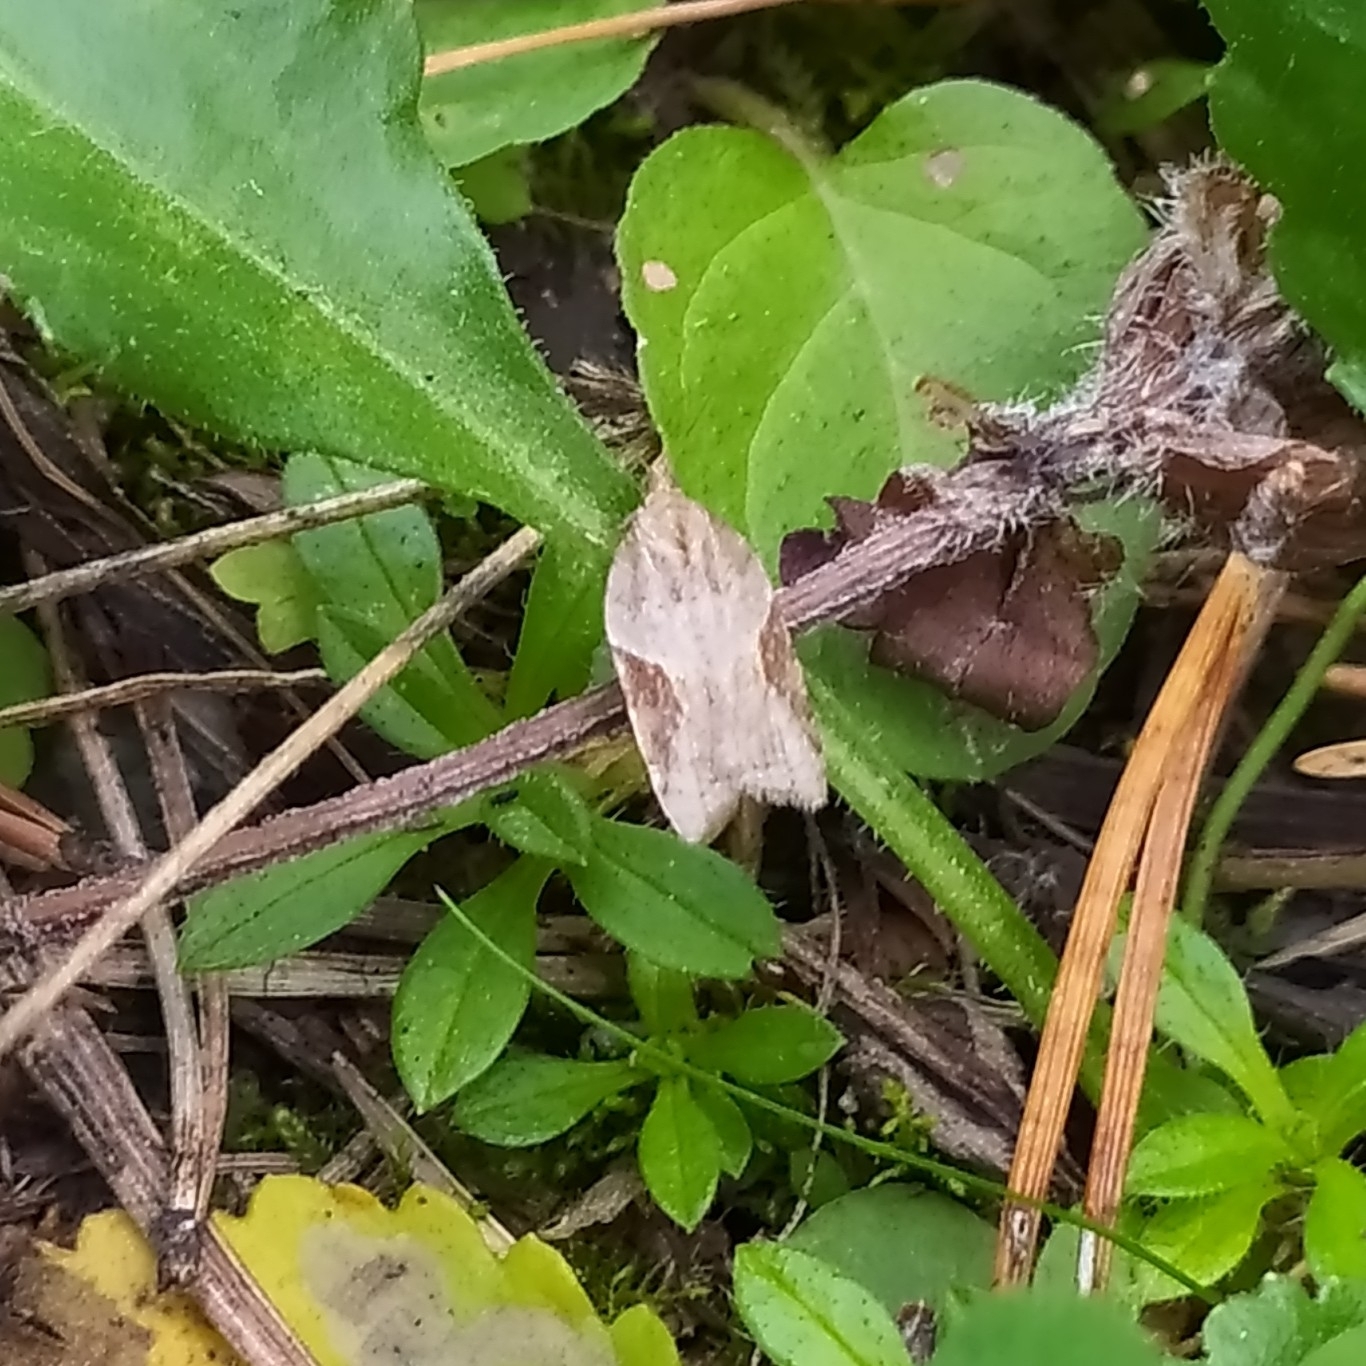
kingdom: Animalia
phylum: Arthropoda
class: Insecta
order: Lepidoptera
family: Tortricidae
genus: Acleris
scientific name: Acleris laterana
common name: Dark-triangle button
